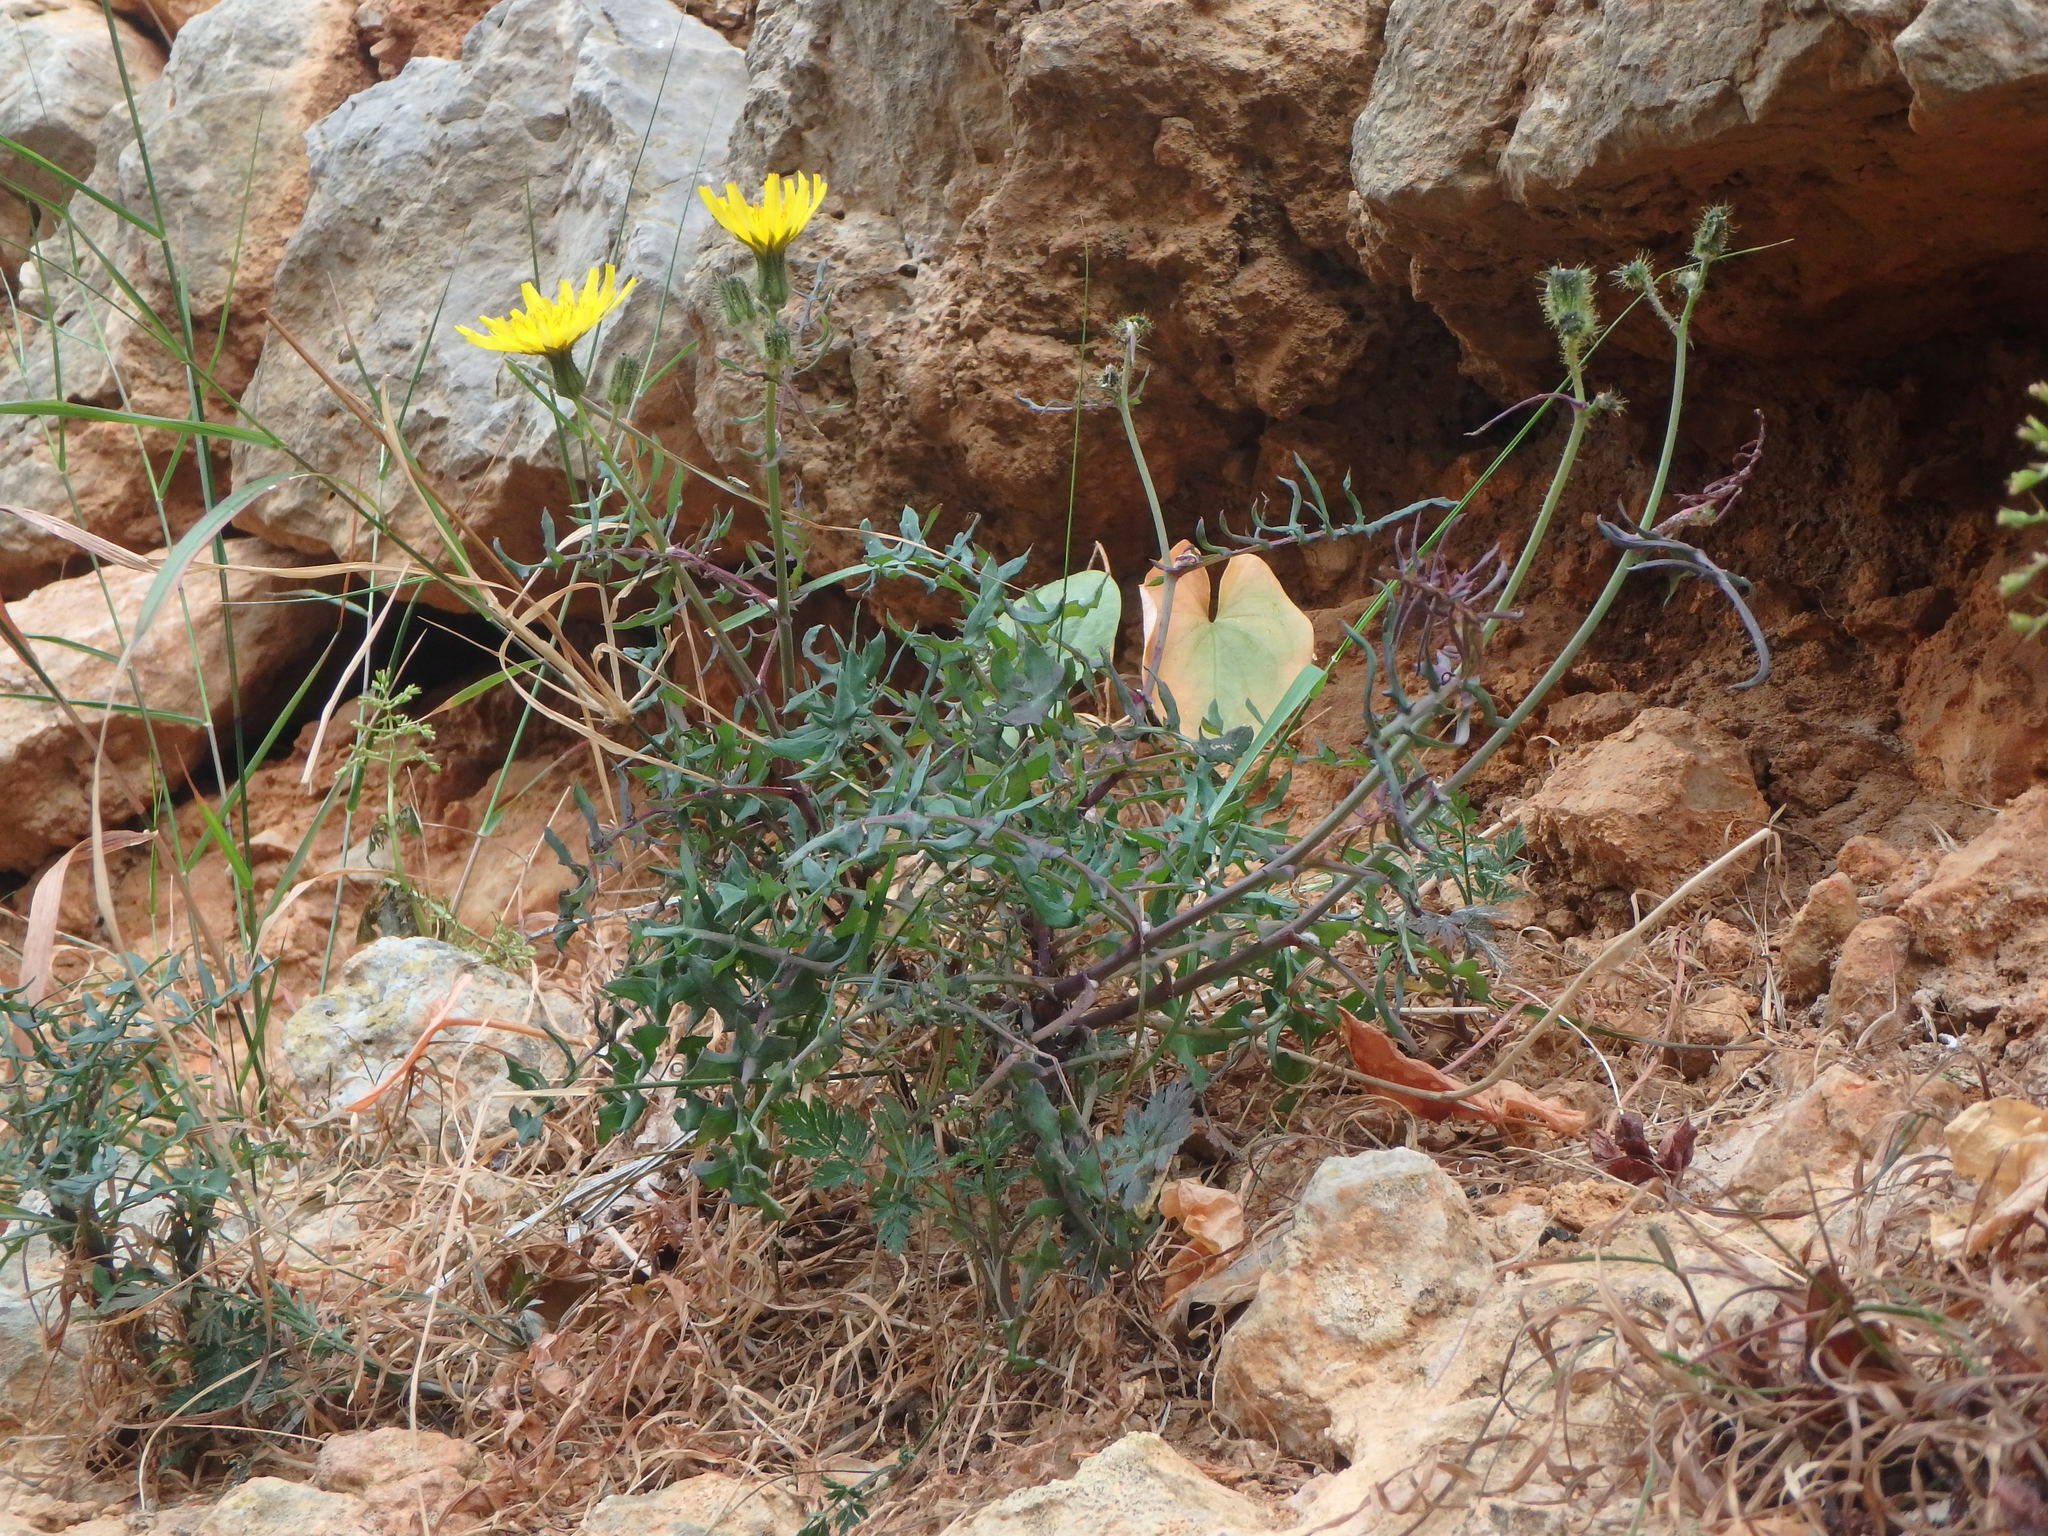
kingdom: Plantae
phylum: Tracheophyta
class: Magnoliopsida
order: Asterales
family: Asteraceae
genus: Sonchus
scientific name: Sonchus tenerrimus
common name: Clammy sowthistle
